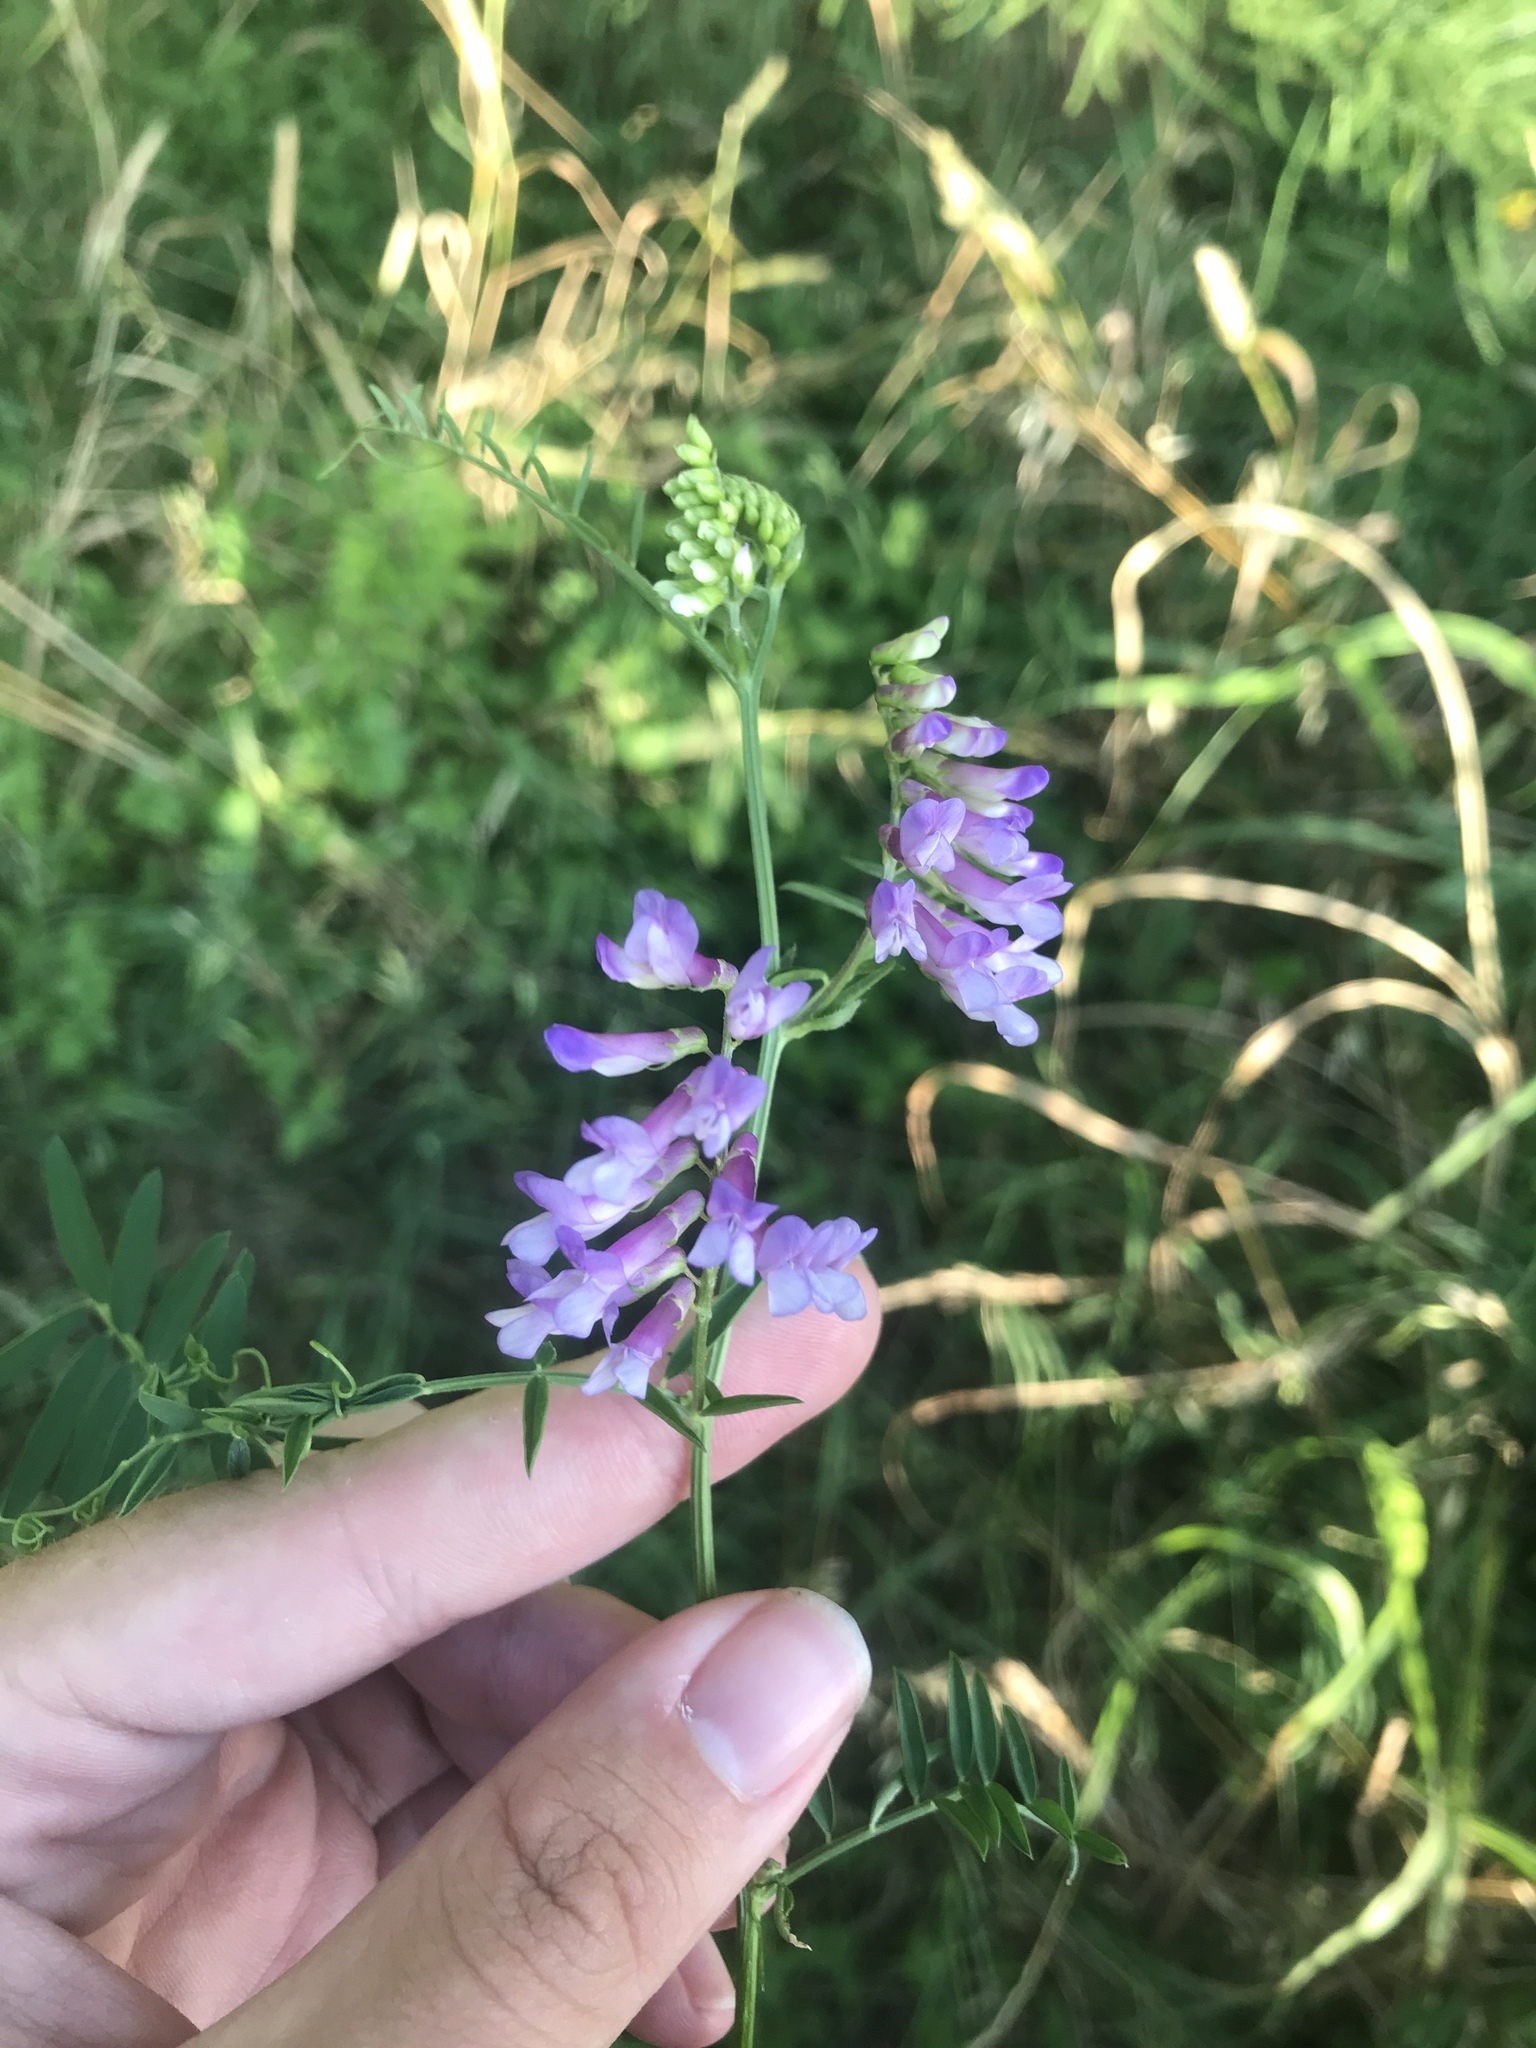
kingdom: Plantae
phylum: Tracheophyta
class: Magnoliopsida
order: Fabales
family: Fabaceae
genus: Vicia
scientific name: Vicia villosa
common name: Fodder vetch
